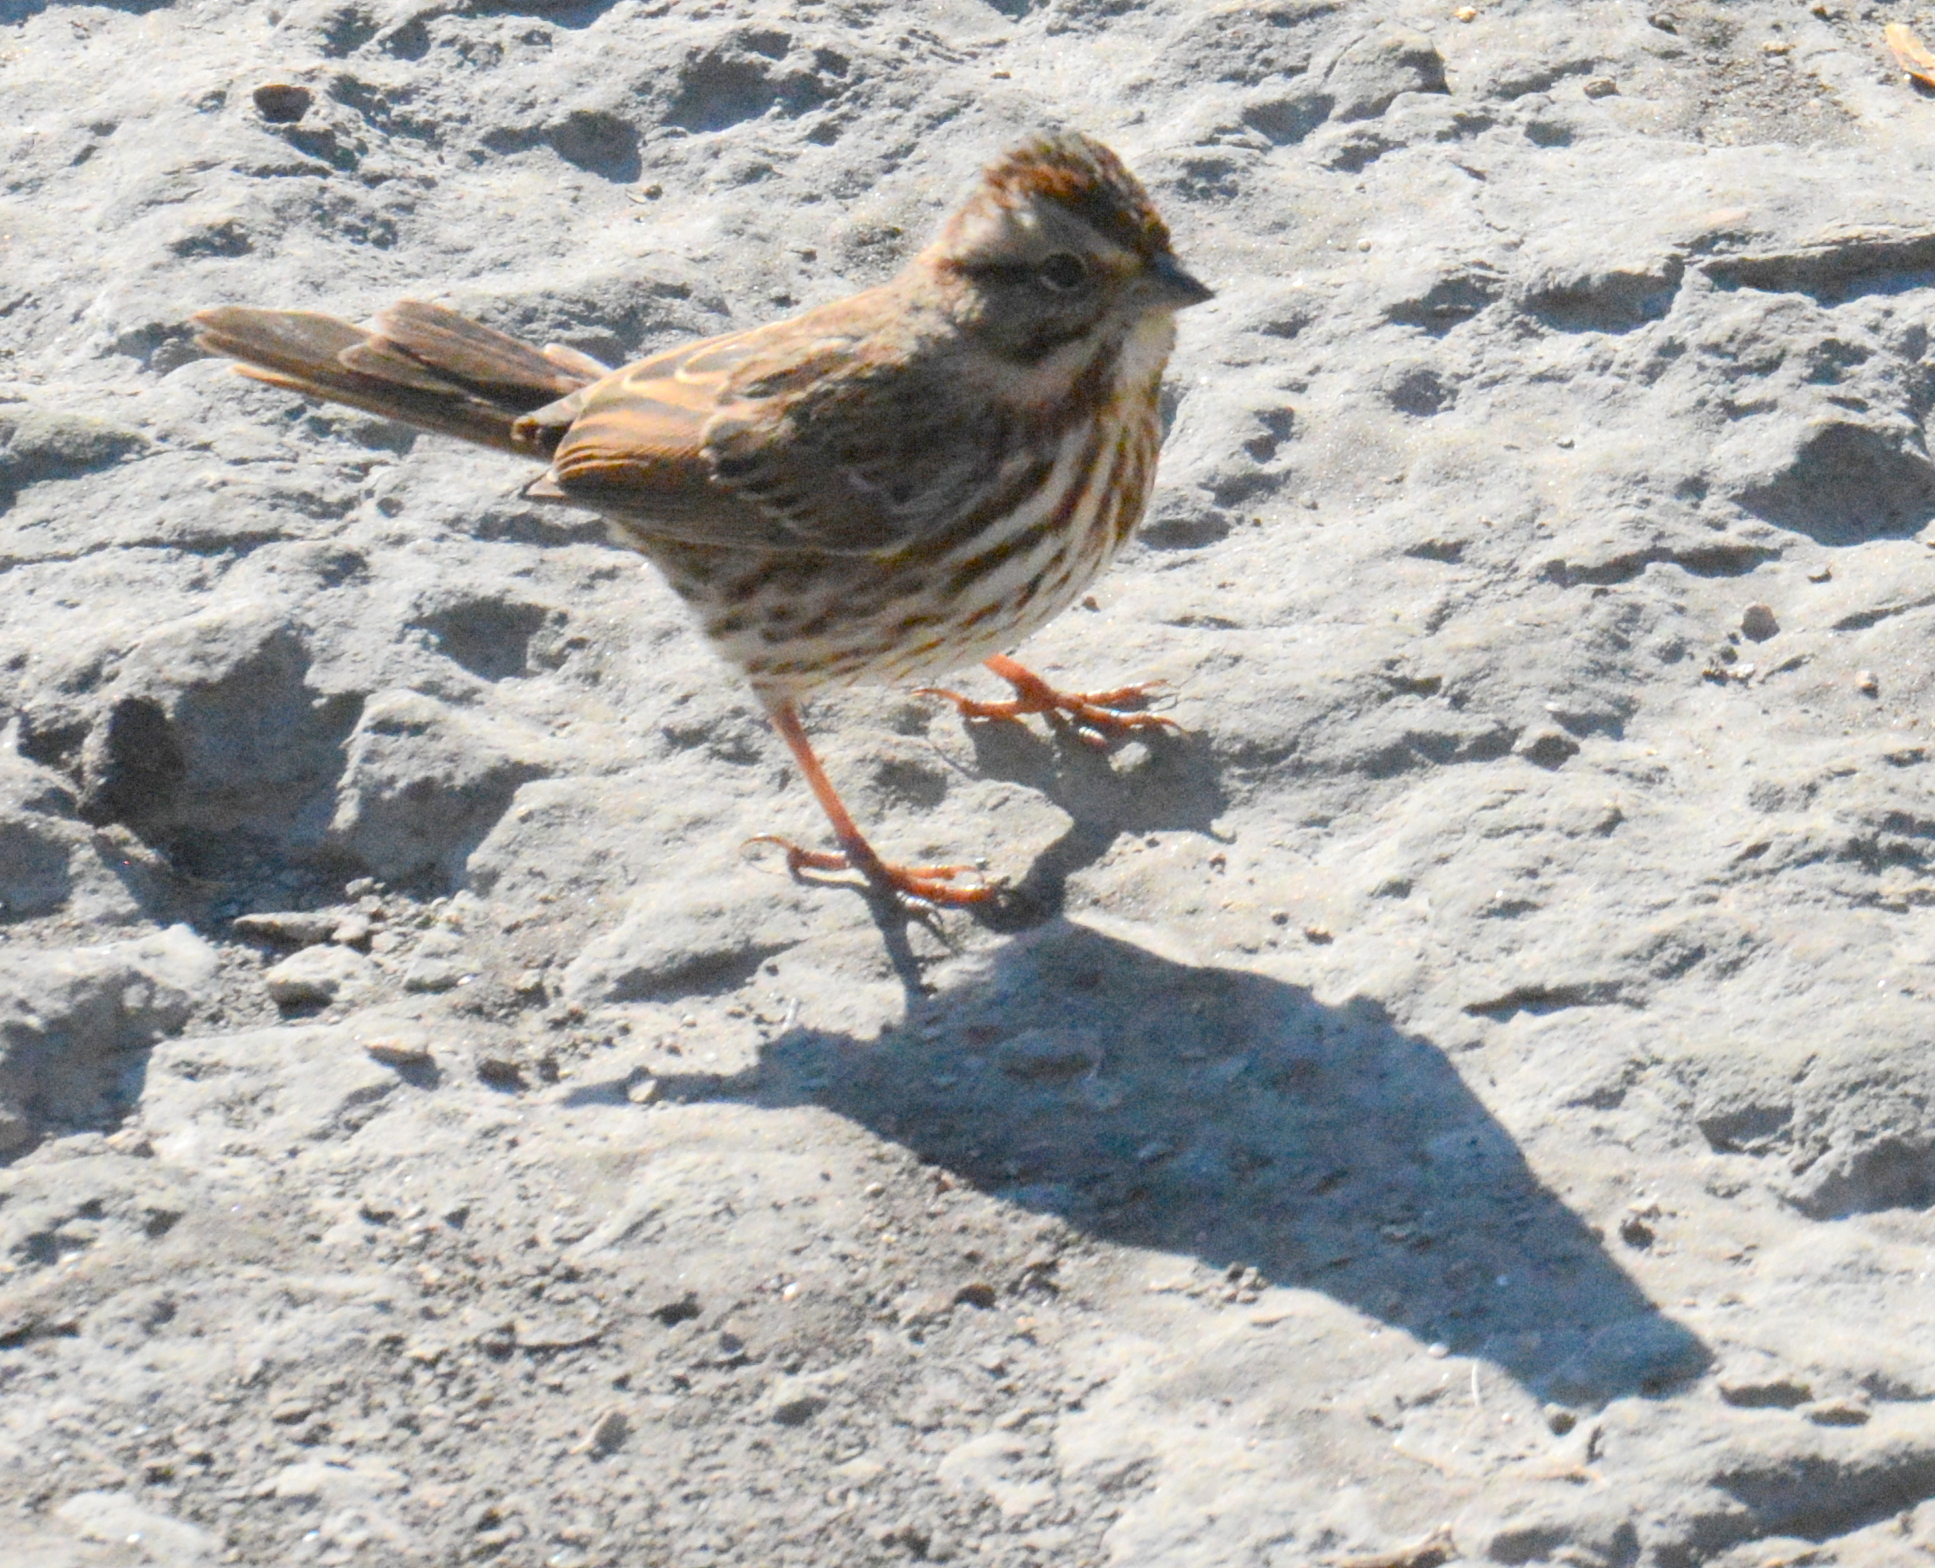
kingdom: Animalia
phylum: Chordata
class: Aves
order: Passeriformes
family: Passerellidae
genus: Melospiza
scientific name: Melospiza melodia
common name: Song sparrow
